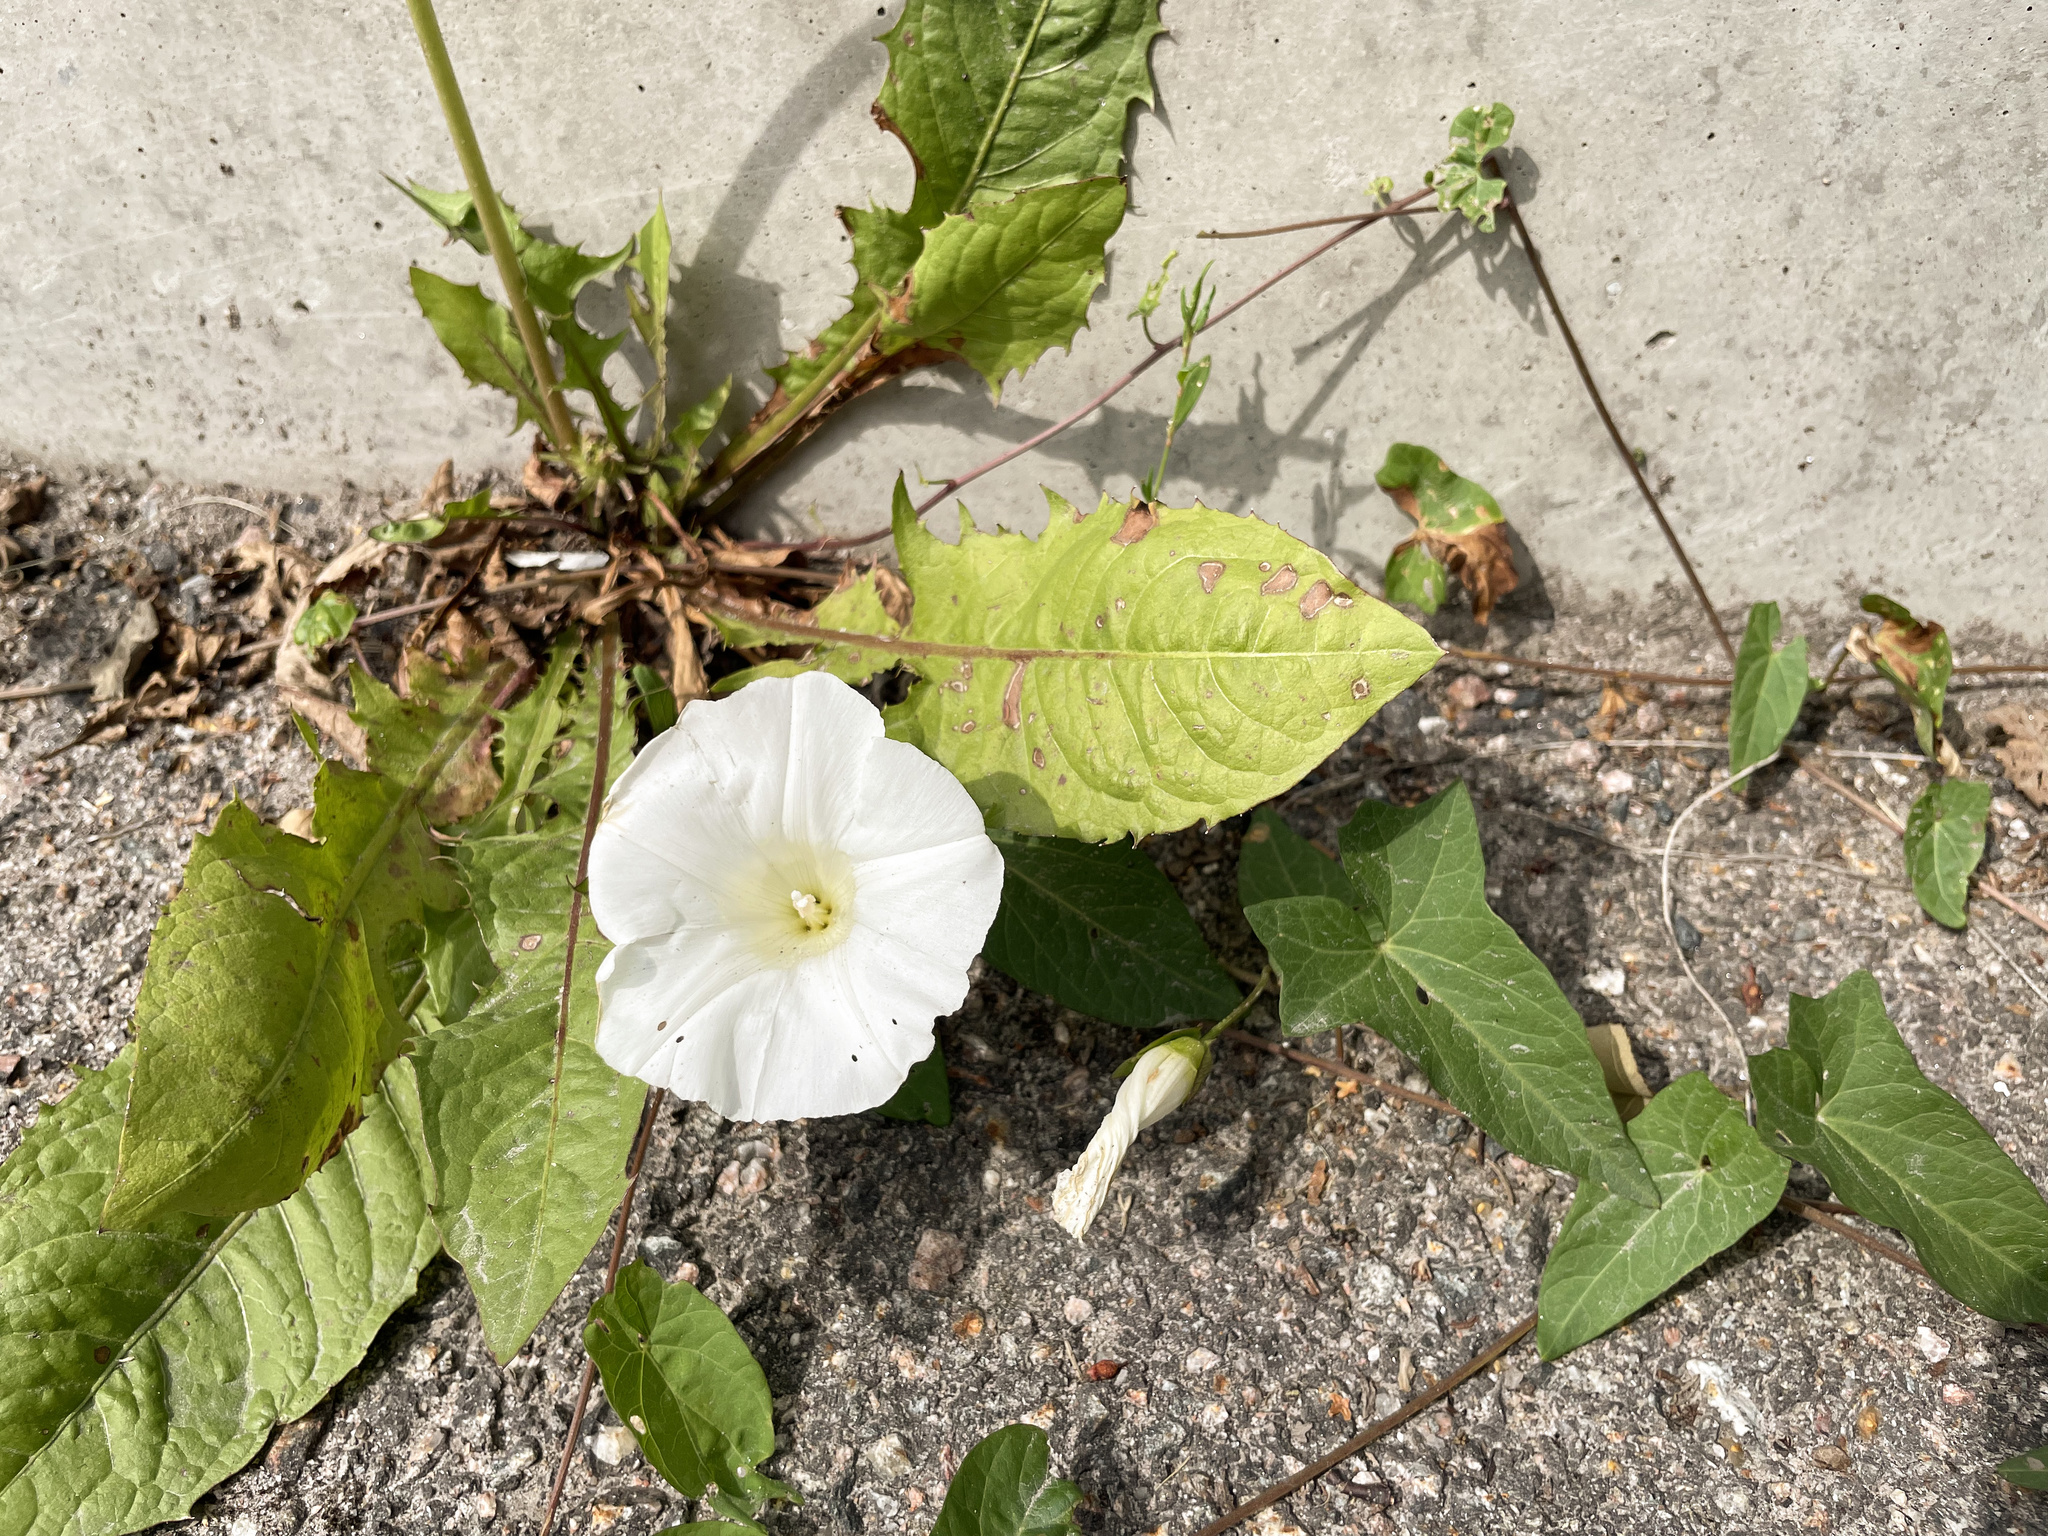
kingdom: Plantae
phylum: Tracheophyta
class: Magnoliopsida
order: Solanales
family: Convolvulaceae
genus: Calystegia
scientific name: Calystegia sepium
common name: Hedge bindweed
